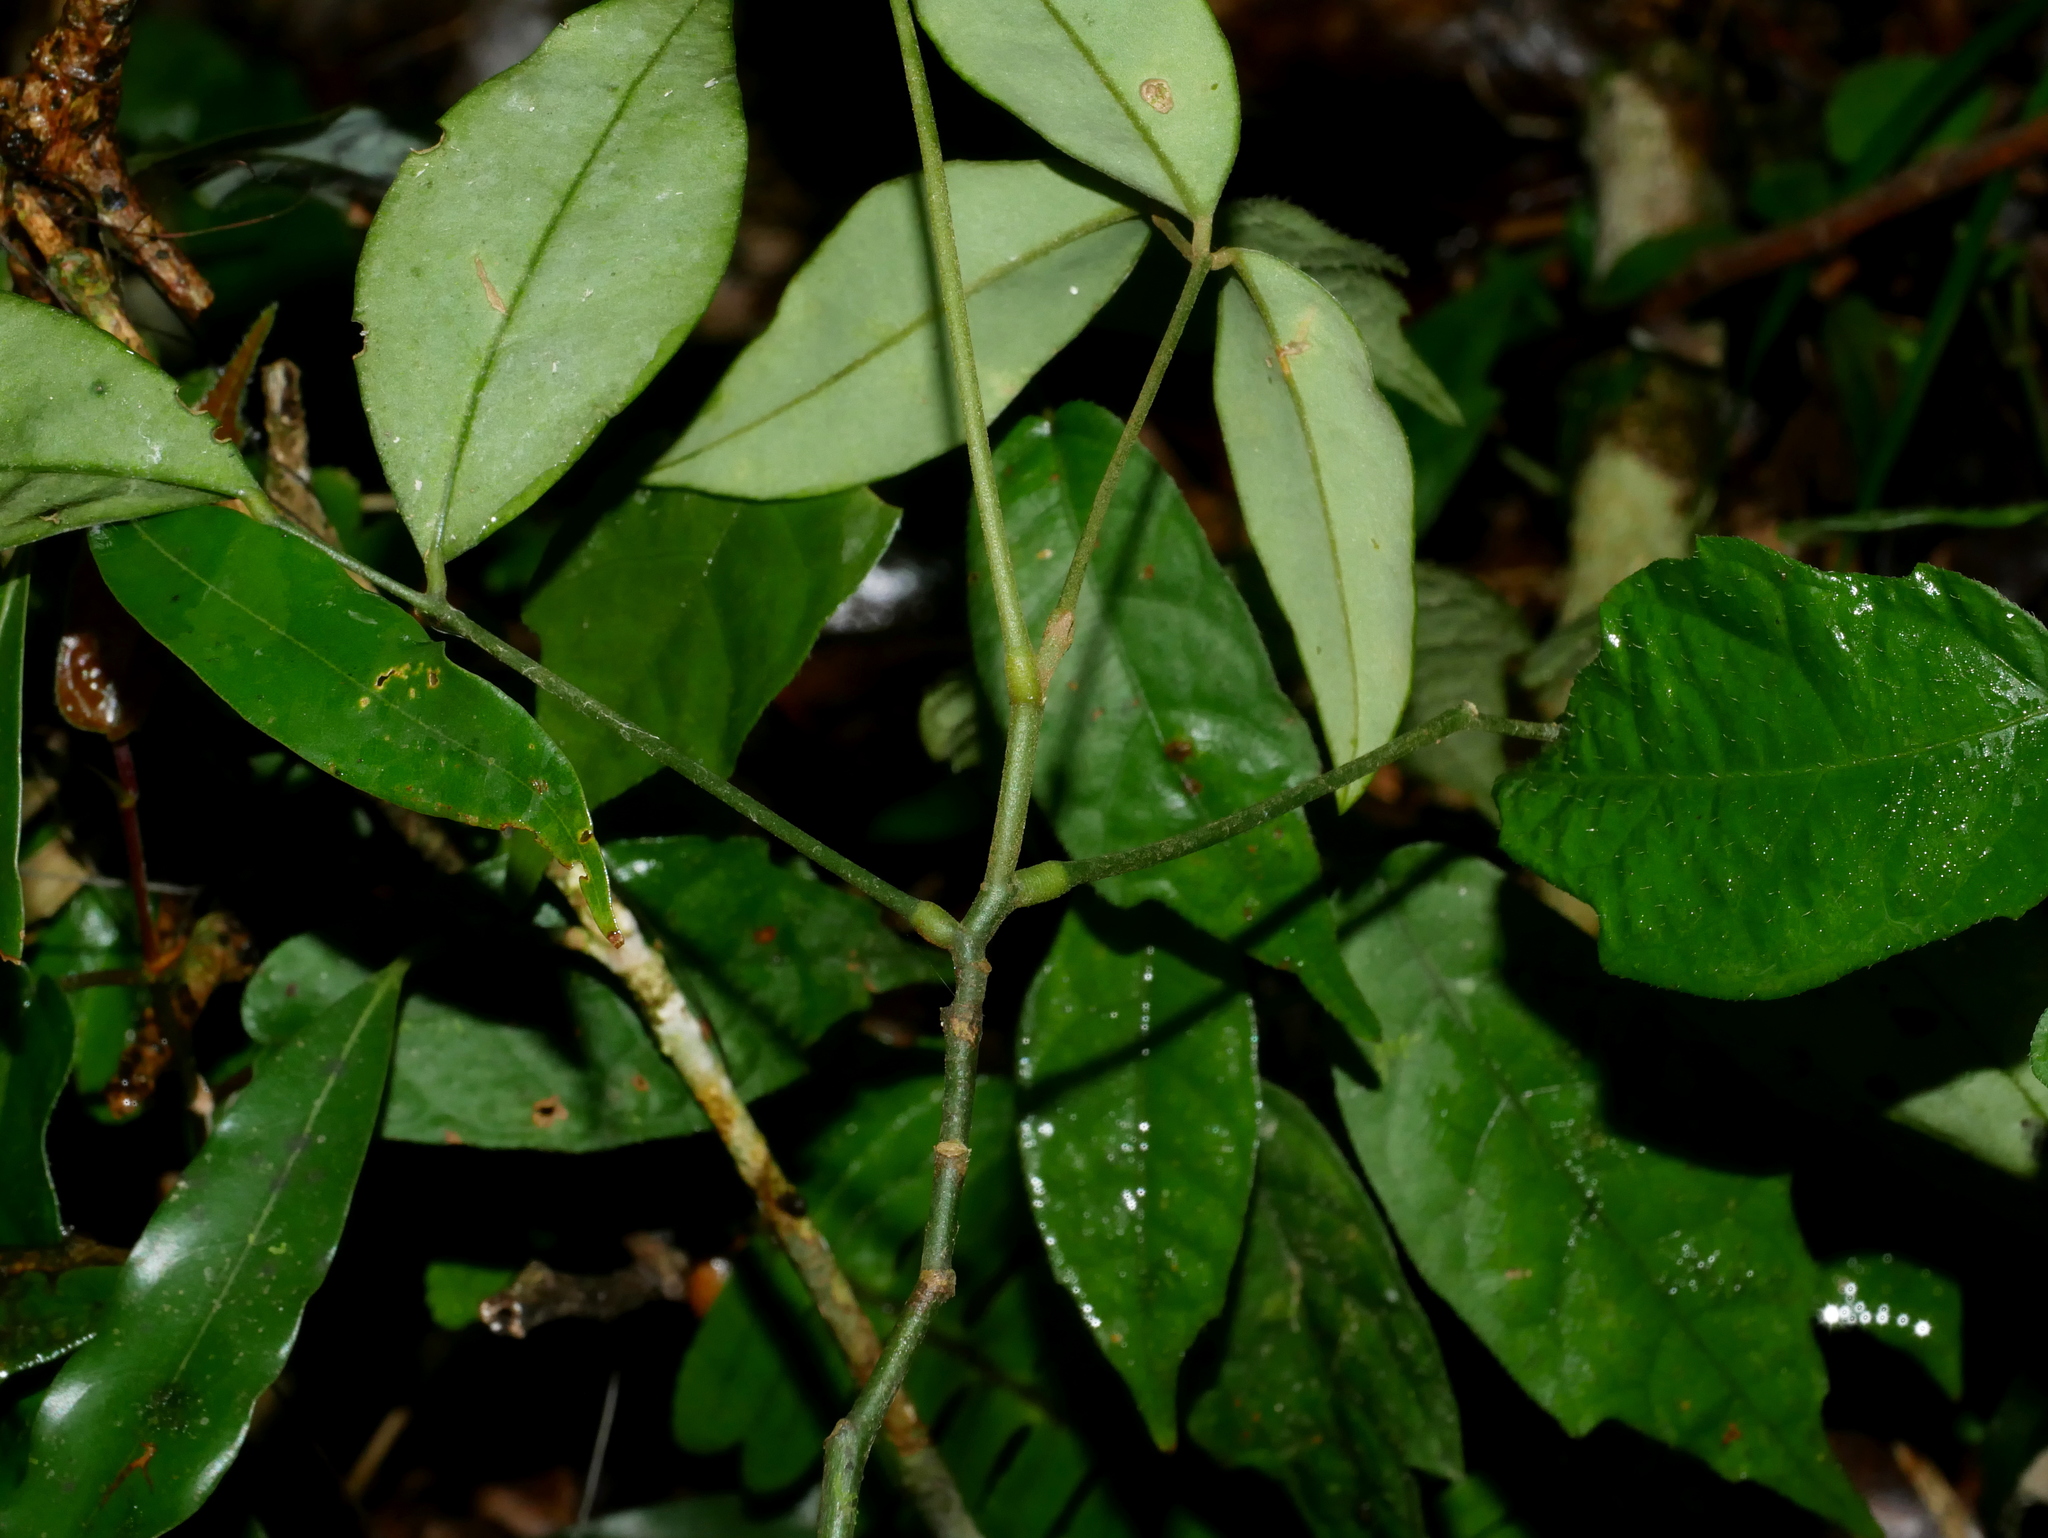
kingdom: Plantae
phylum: Tracheophyta
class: Magnoliopsida
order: Fabales
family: Fabaceae
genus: Euchresta
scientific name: Euchresta formosana
